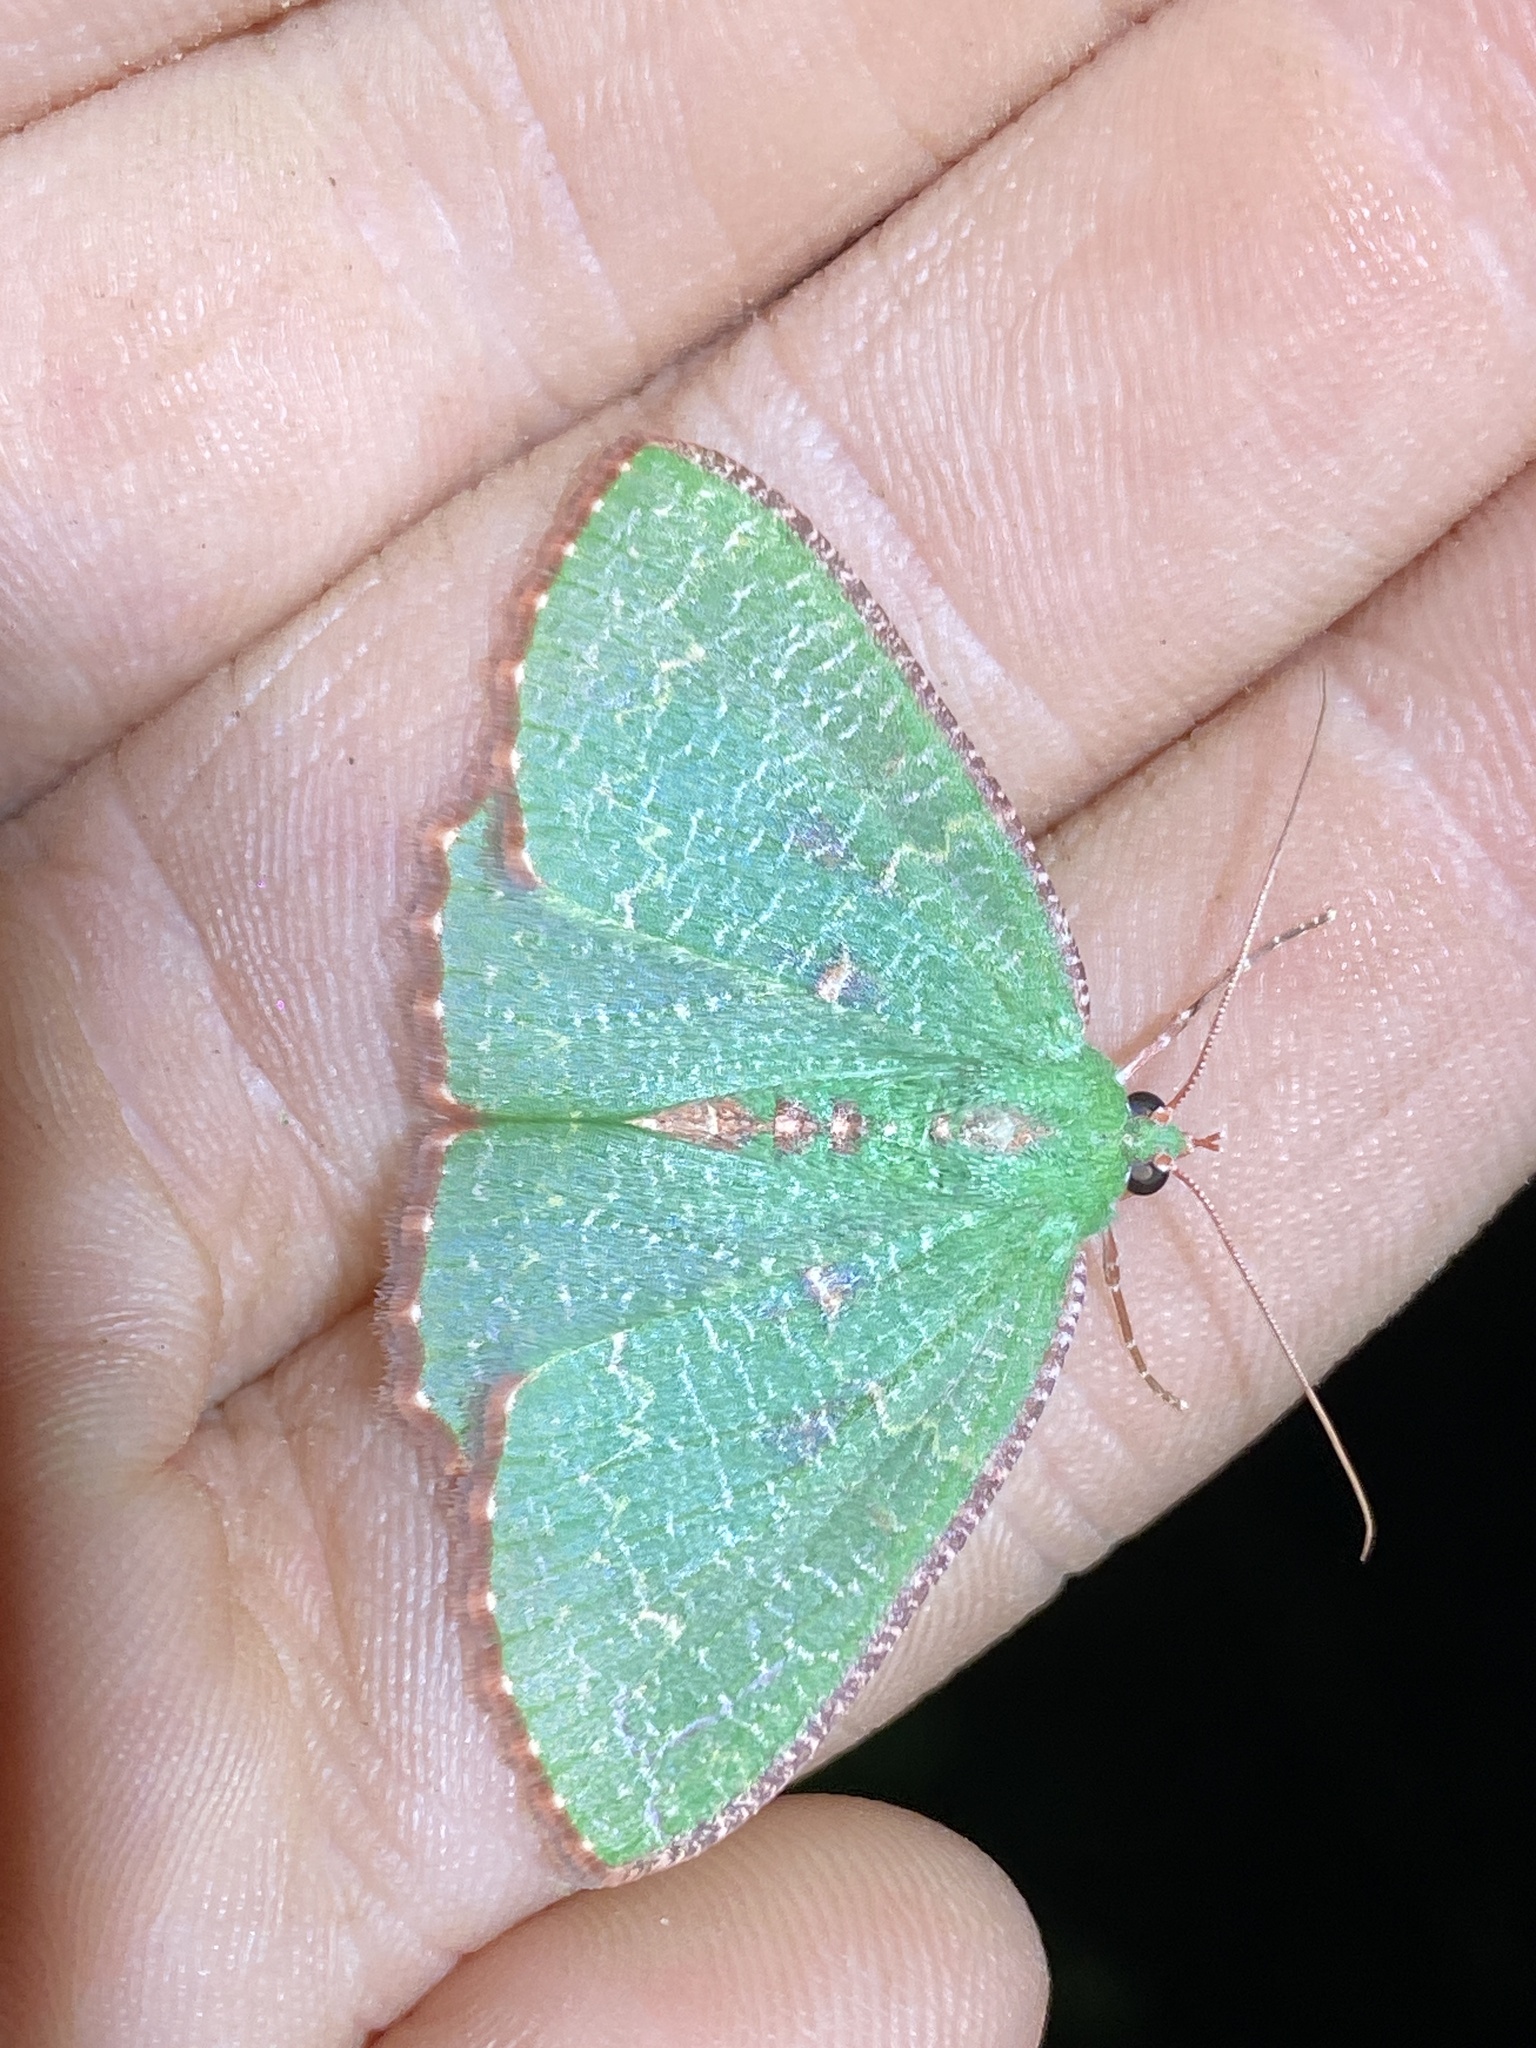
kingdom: Animalia
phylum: Arthropoda
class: Insecta
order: Lepidoptera
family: Geometridae
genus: Eucyclodes
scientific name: Eucyclodes metaspila
